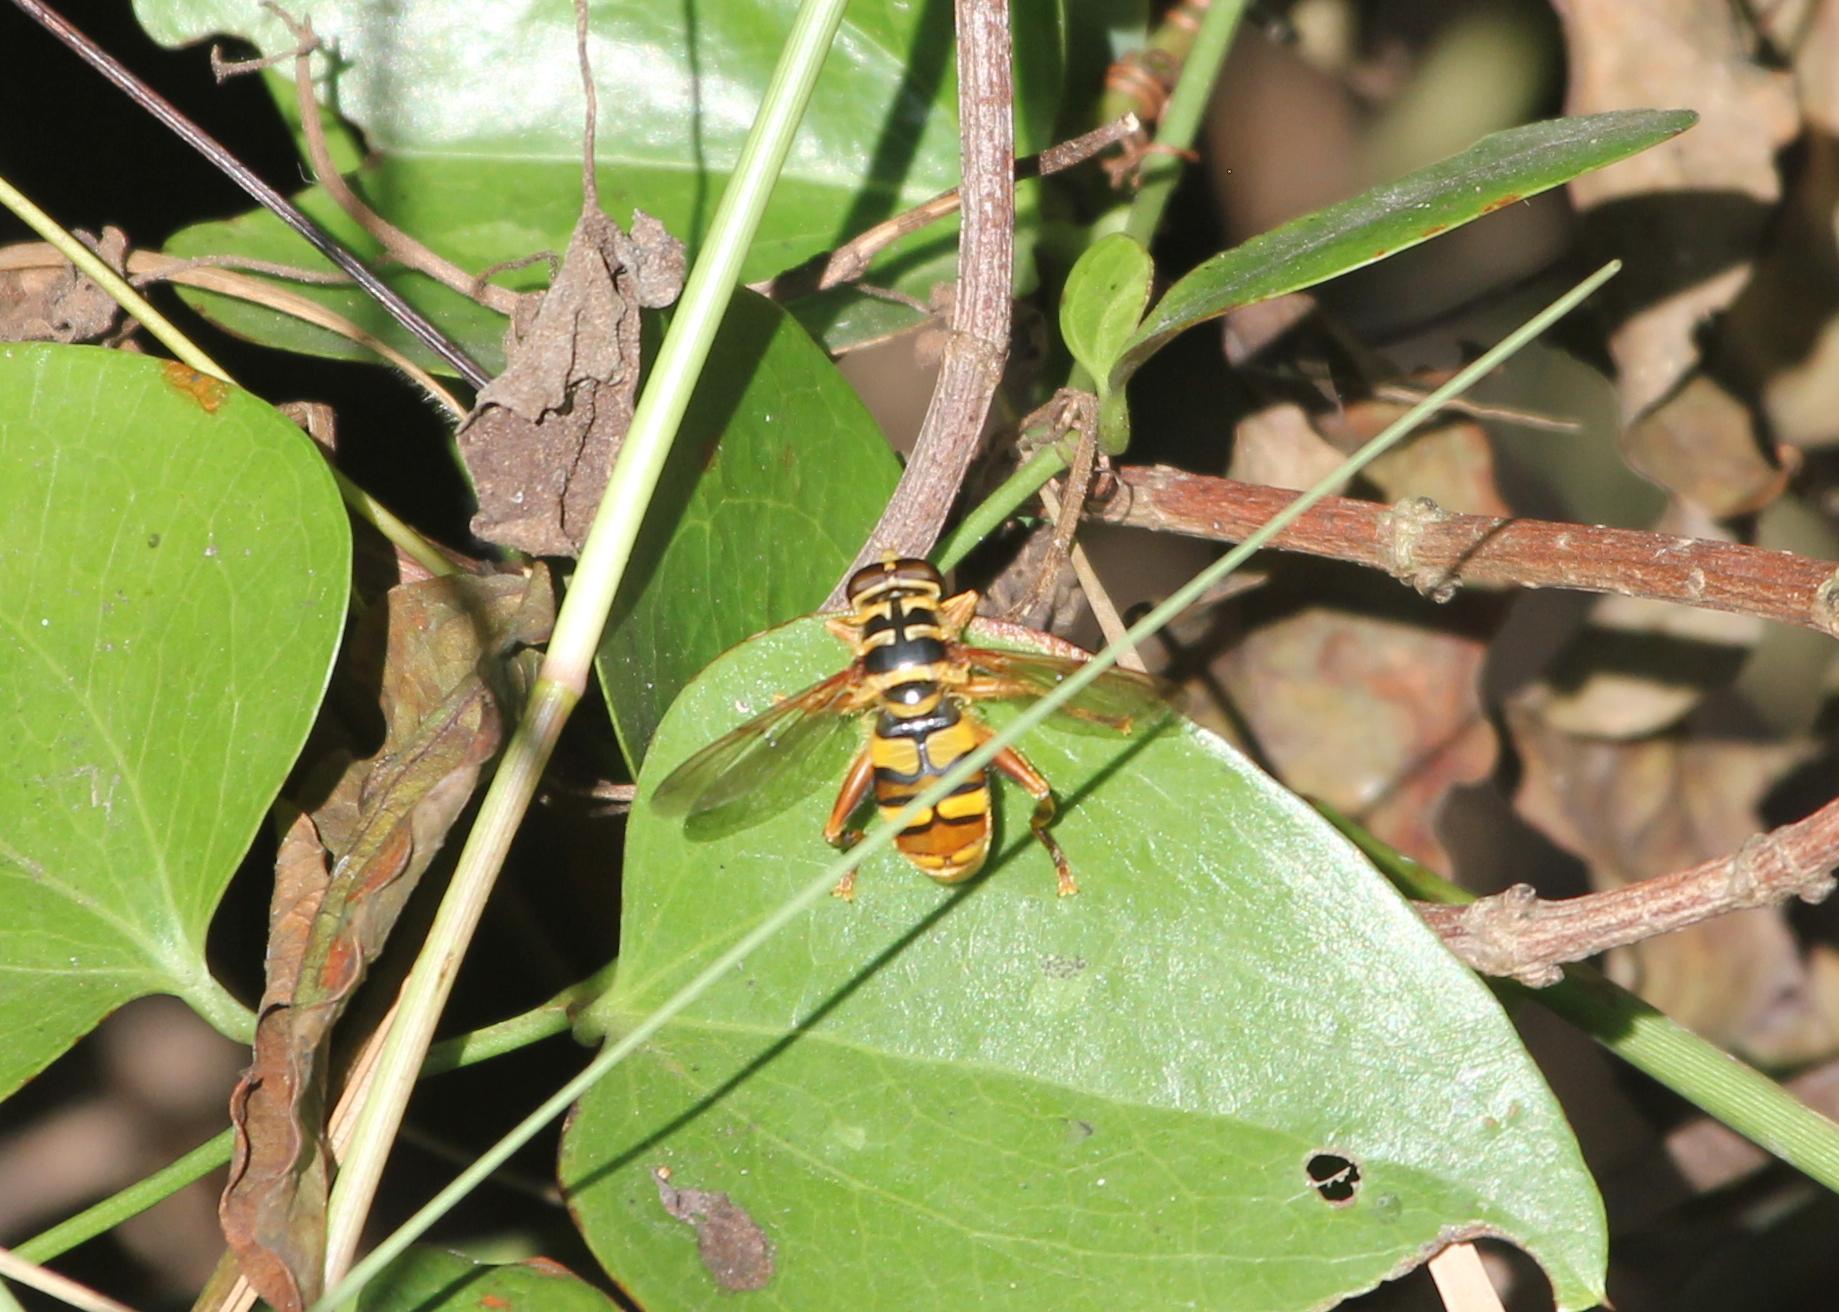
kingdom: Animalia
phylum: Arthropoda
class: Insecta
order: Diptera
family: Syrphidae
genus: Milesia
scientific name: Milesia virginiensis
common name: Virginia giant
